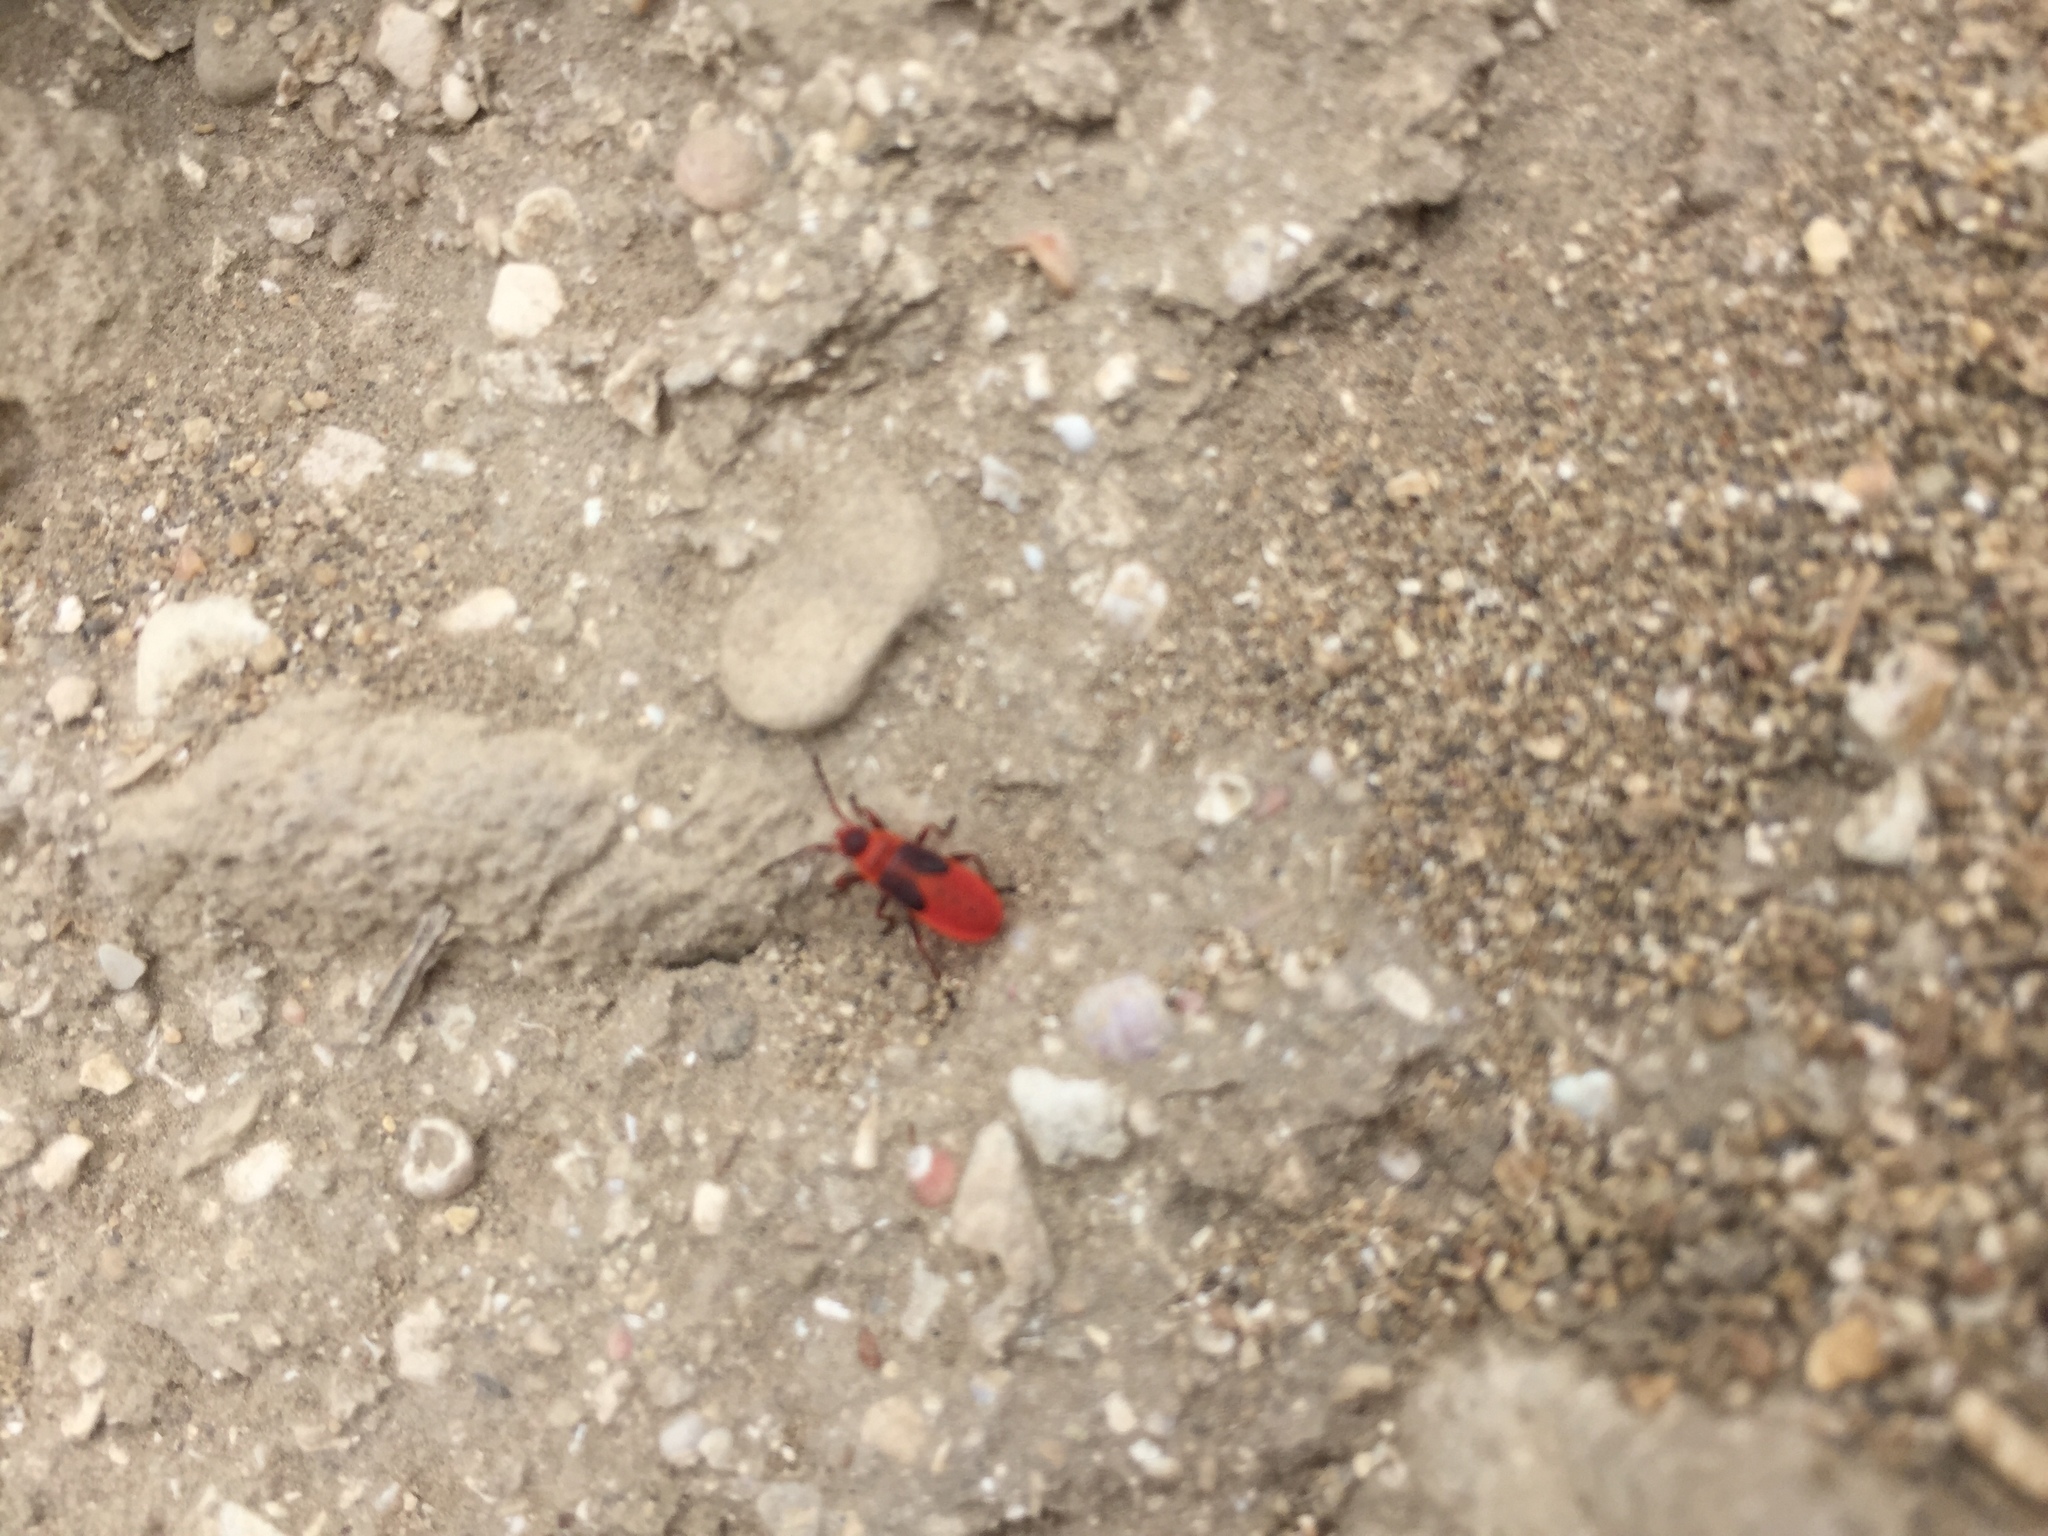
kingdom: Animalia
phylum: Arthropoda
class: Insecta
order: Hemiptera
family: Pyrrhocoridae
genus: Scantius
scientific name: Scantius aegyptius
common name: Red bug
